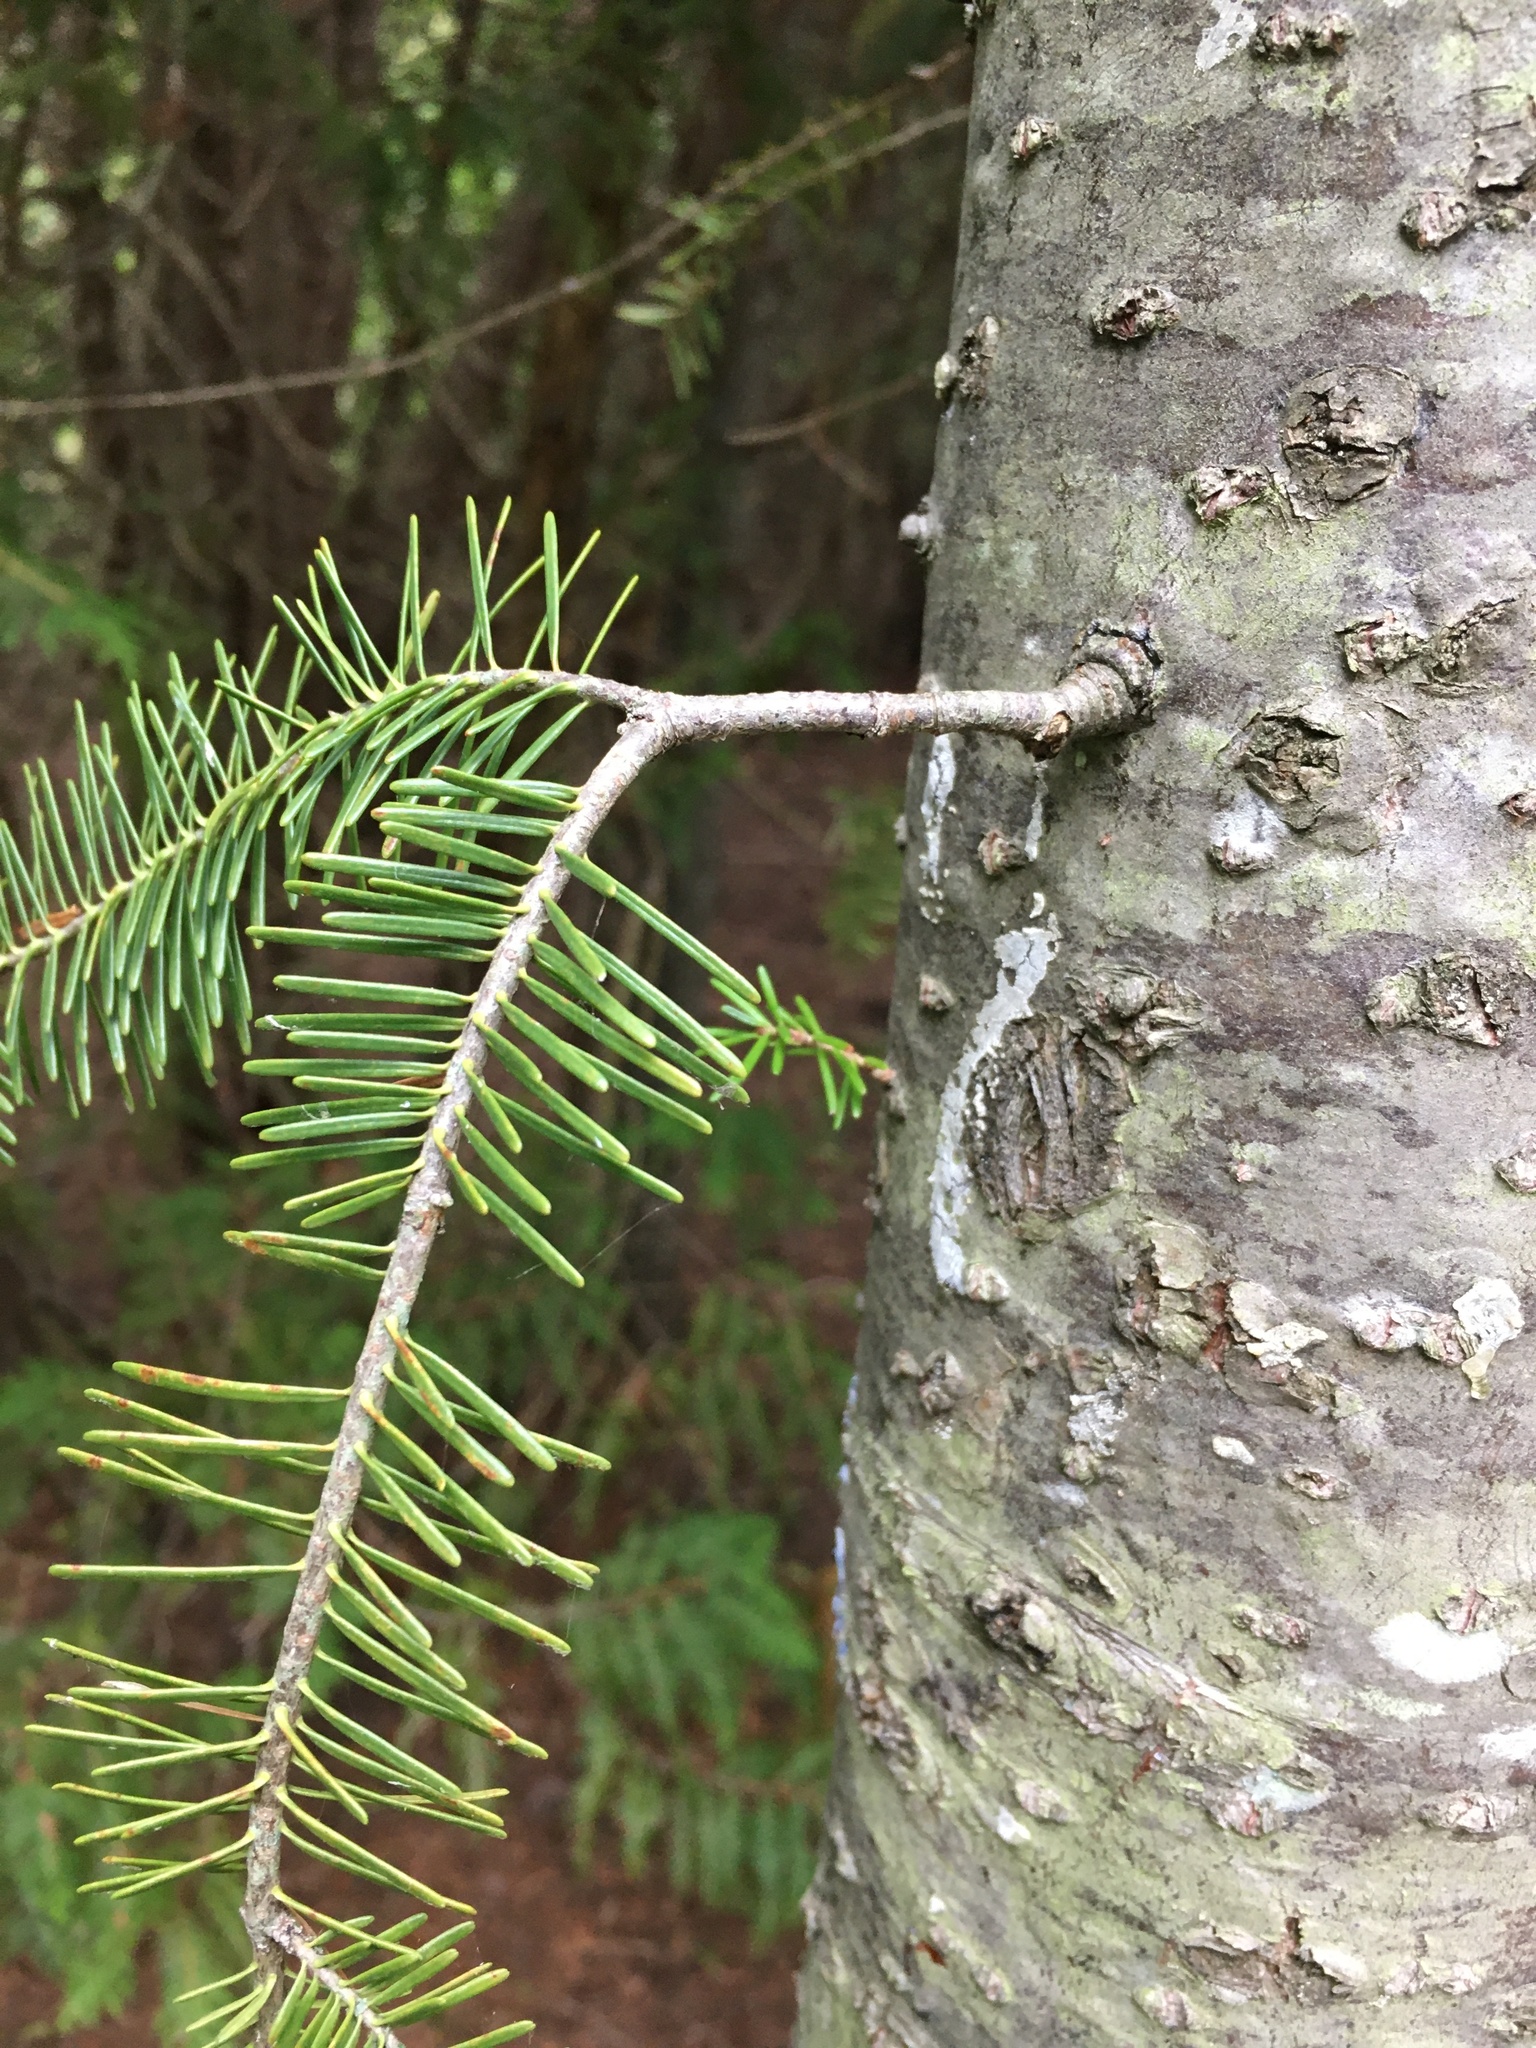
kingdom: Plantae
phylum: Tracheophyta
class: Pinopsida
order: Pinales
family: Pinaceae
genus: Abies
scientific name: Abies balsamea
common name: Balsam fir
